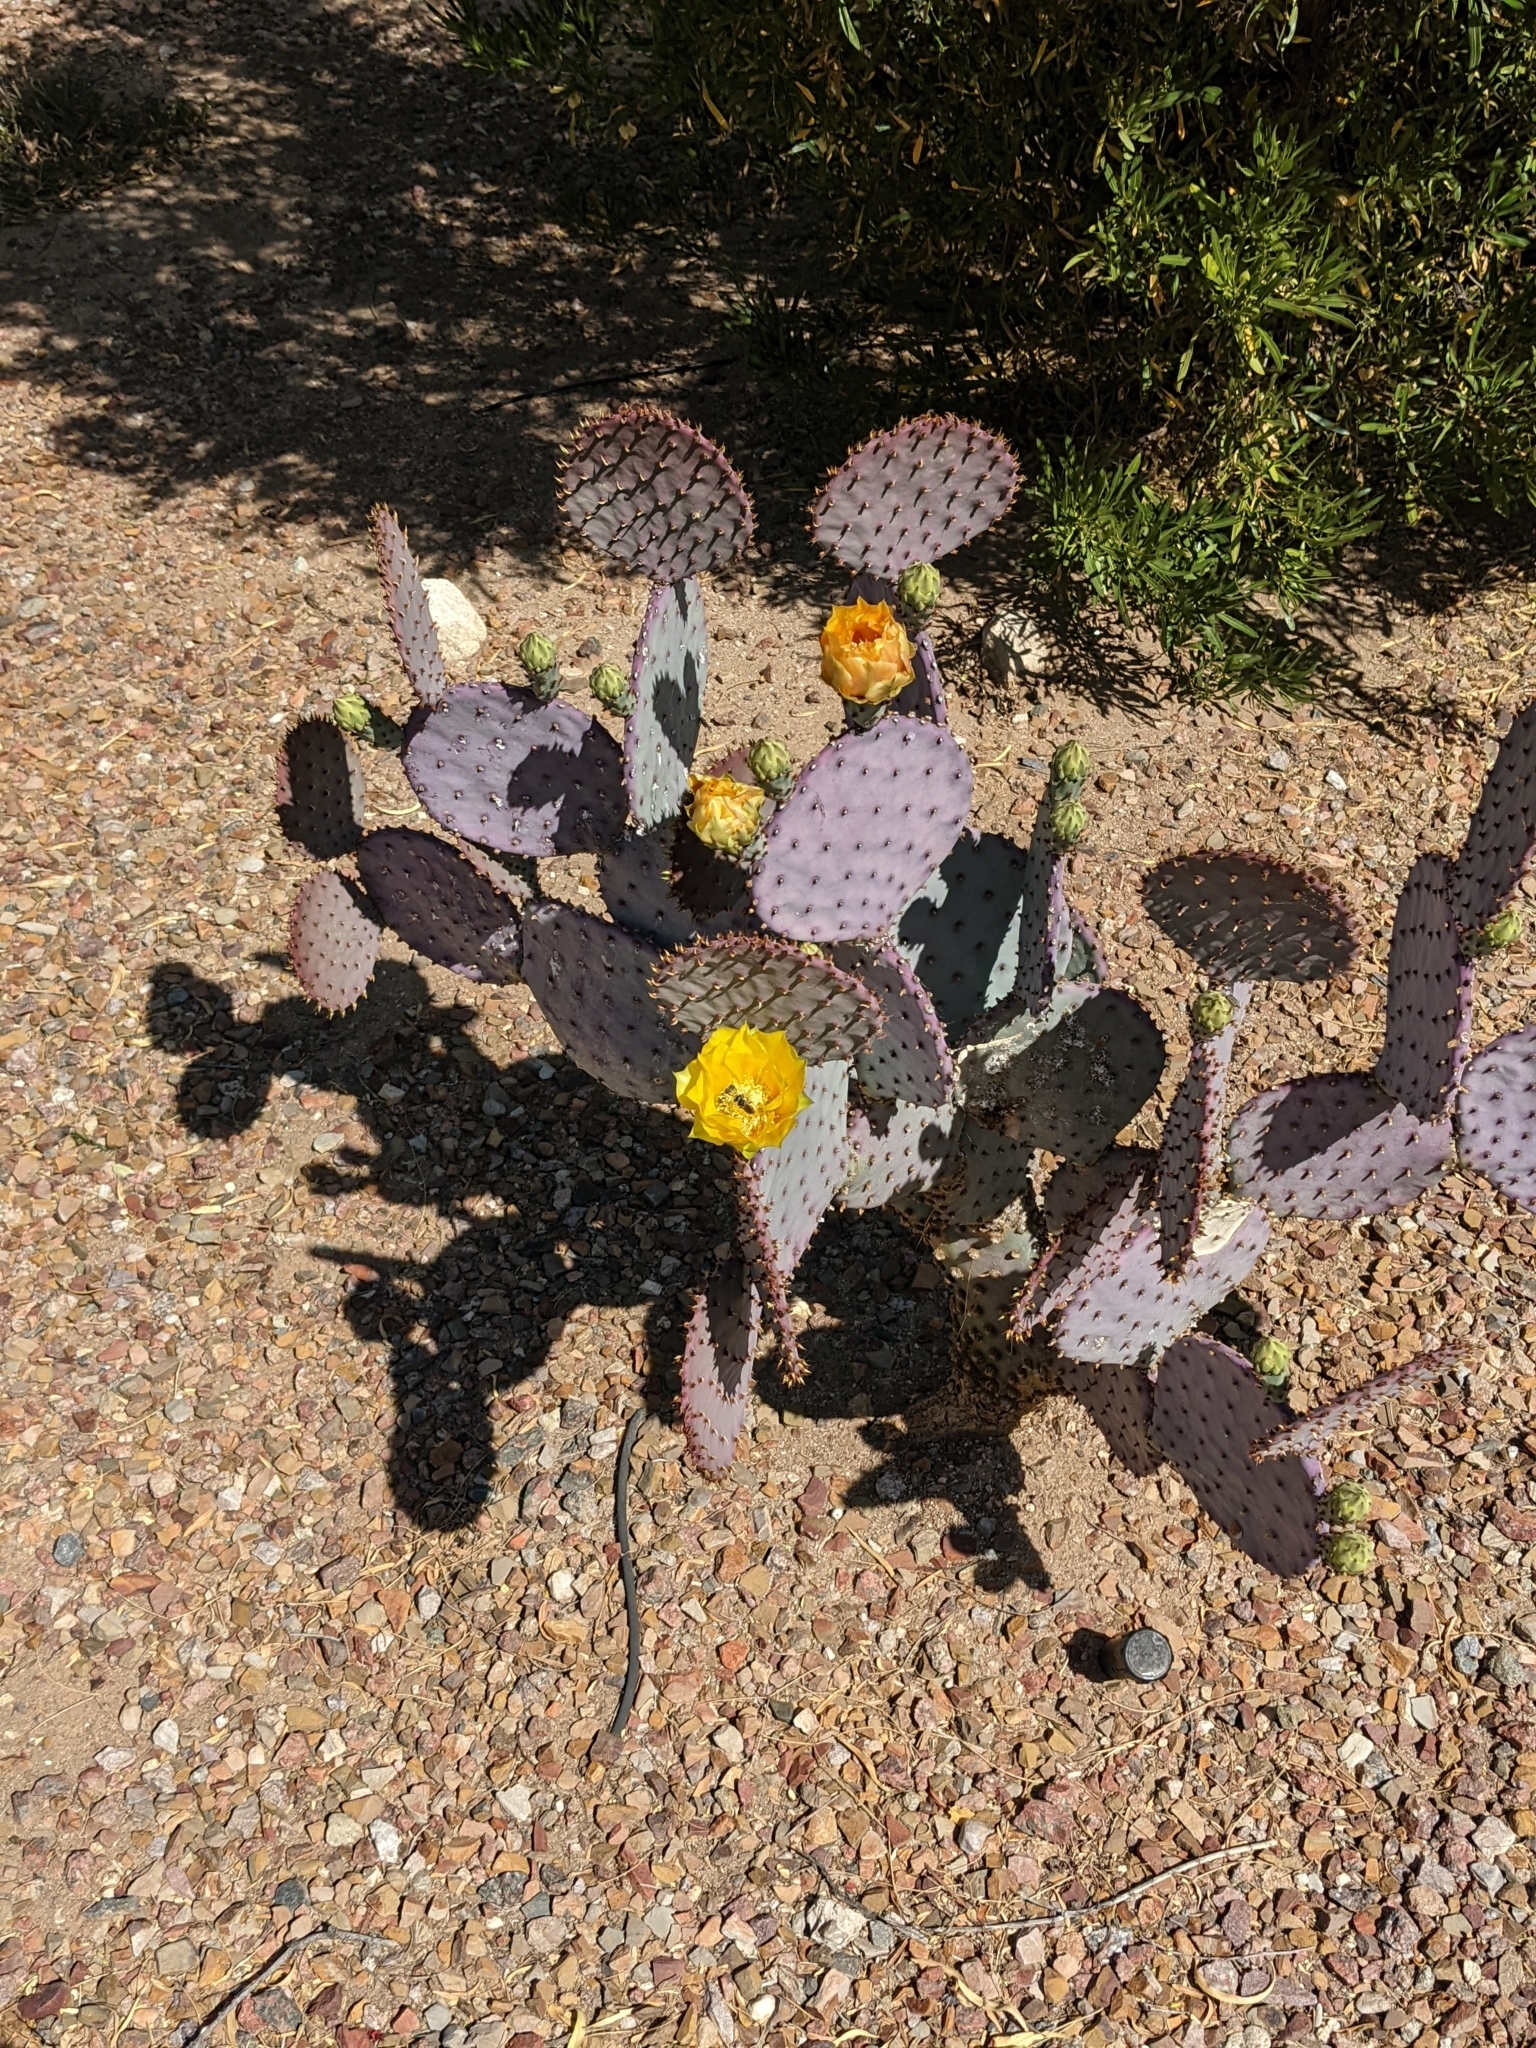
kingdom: Plantae
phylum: Tracheophyta
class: Magnoliopsida
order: Caryophyllales
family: Cactaceae
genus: Opuntia
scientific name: Opuntia gosseliniana
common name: Violet prickly-pear
